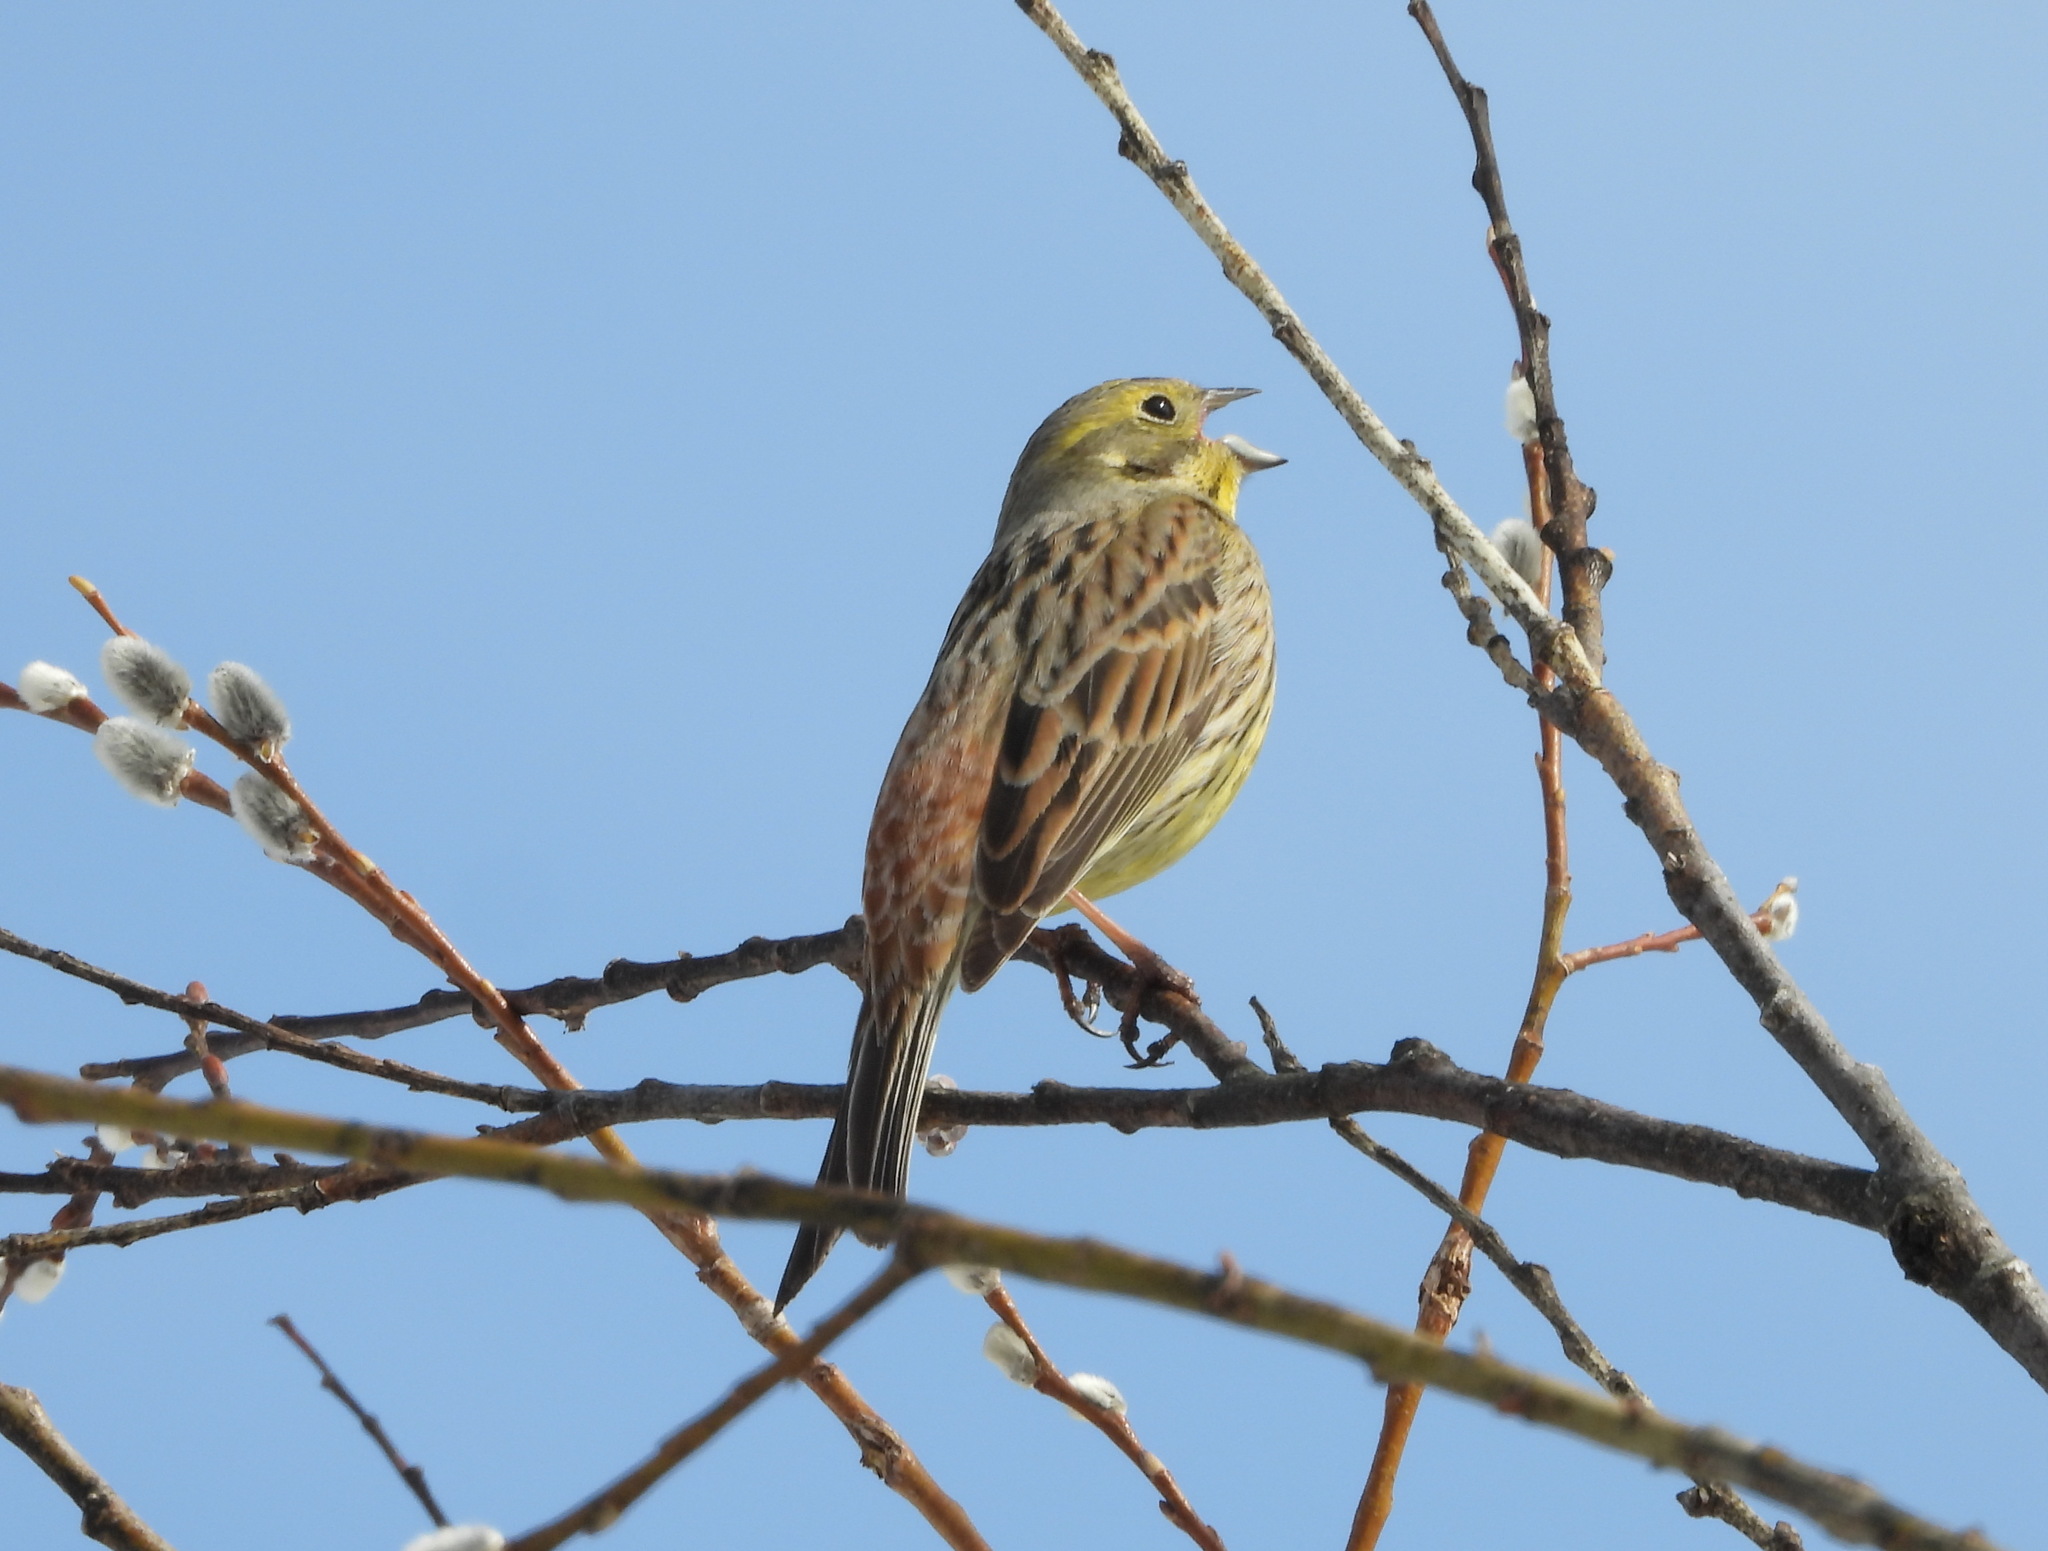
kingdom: Animalia
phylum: Chordata
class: Aves
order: Passeriformes
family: Emberizidae
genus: Emberiza
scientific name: Emberiza citrinella
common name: Yellowhammer
